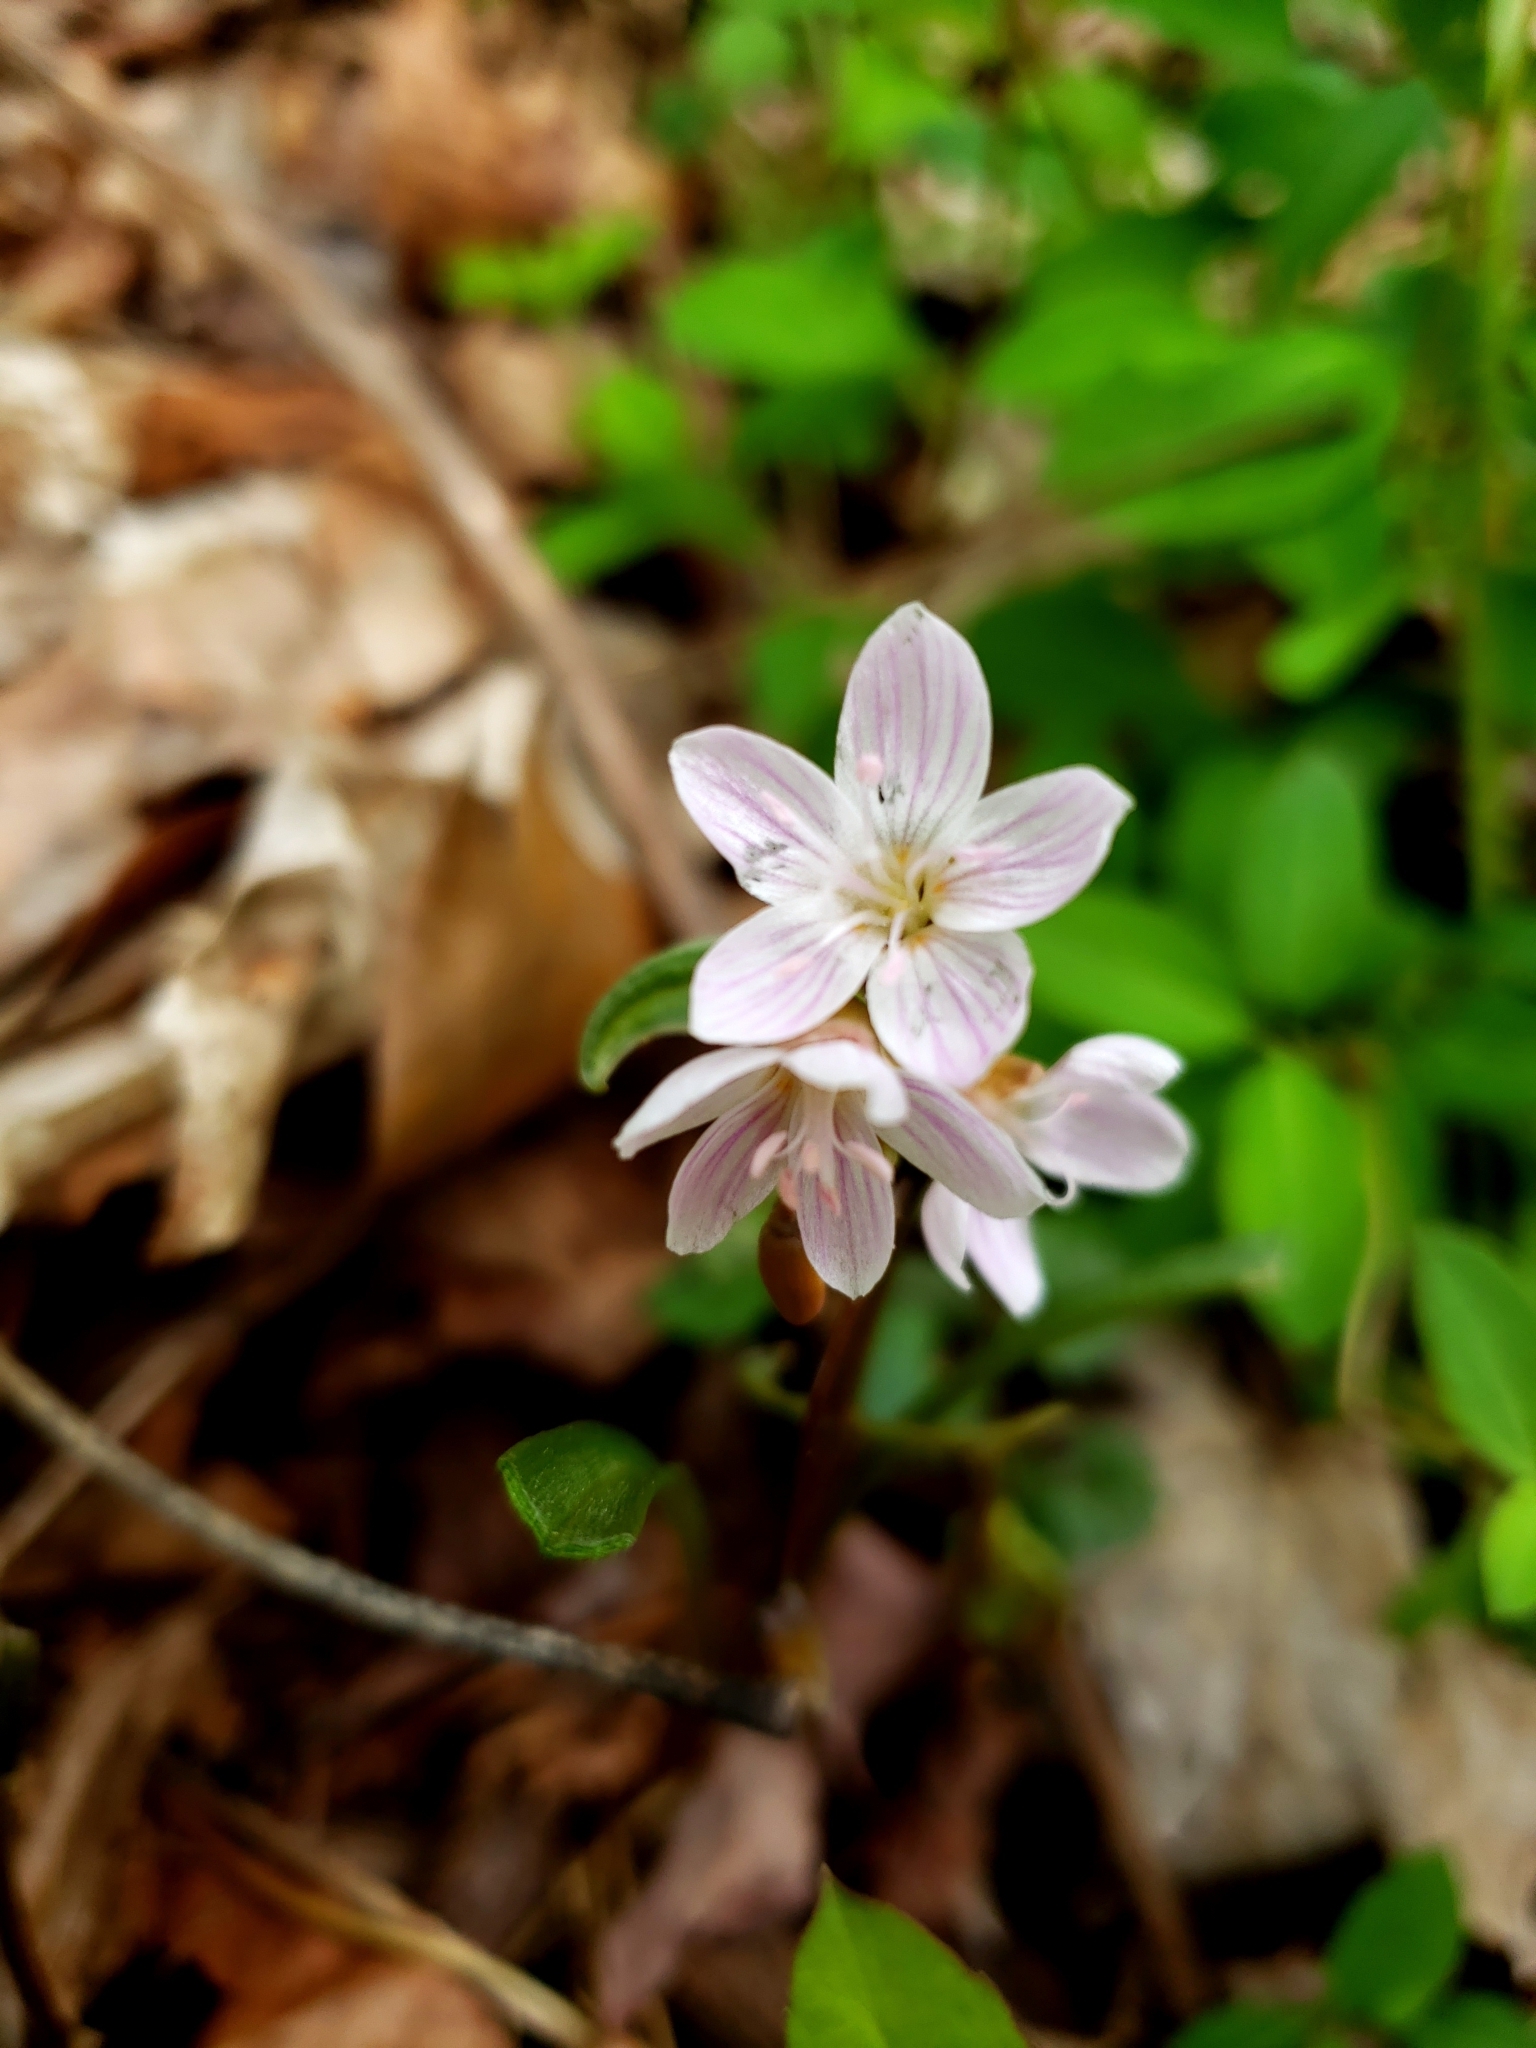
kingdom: Plantae
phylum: Tracheophyta
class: Magnoliopsida
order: Caryophyllales
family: Montiaceae
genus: Claytonia
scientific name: Claytonia virginica
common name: Virginia springbeauty
